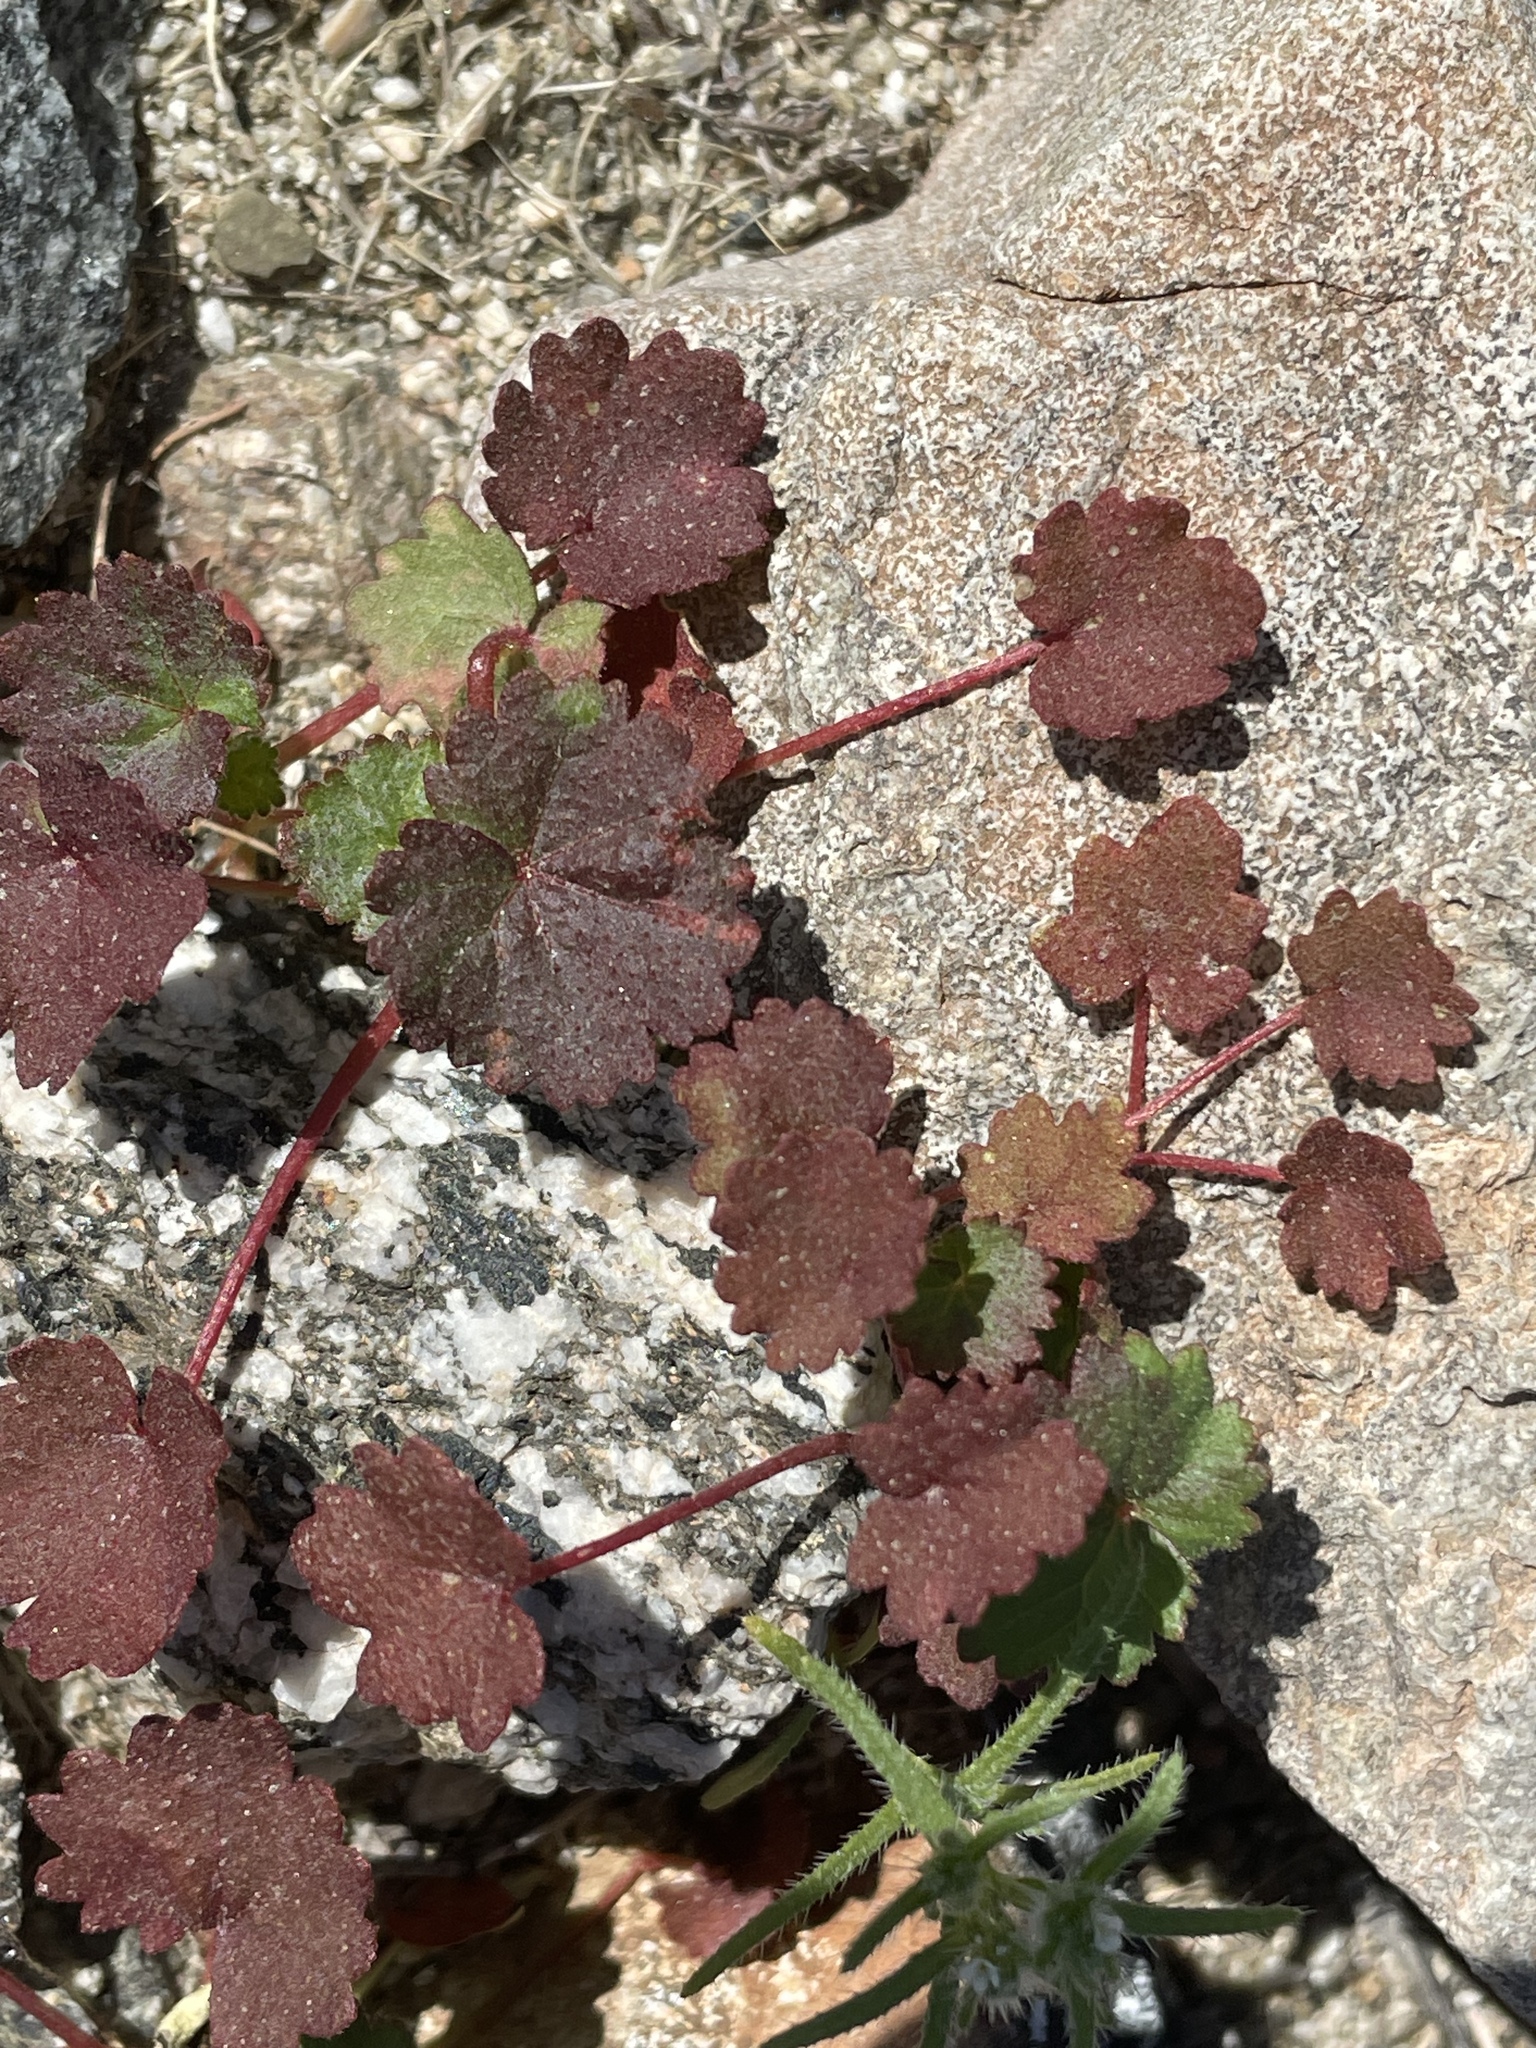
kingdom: Plantae
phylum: Tracheophyta
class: Magnoliopsida
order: Malvales
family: Malvaceae
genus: Eremalche
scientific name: Eremalche rotundifolia
